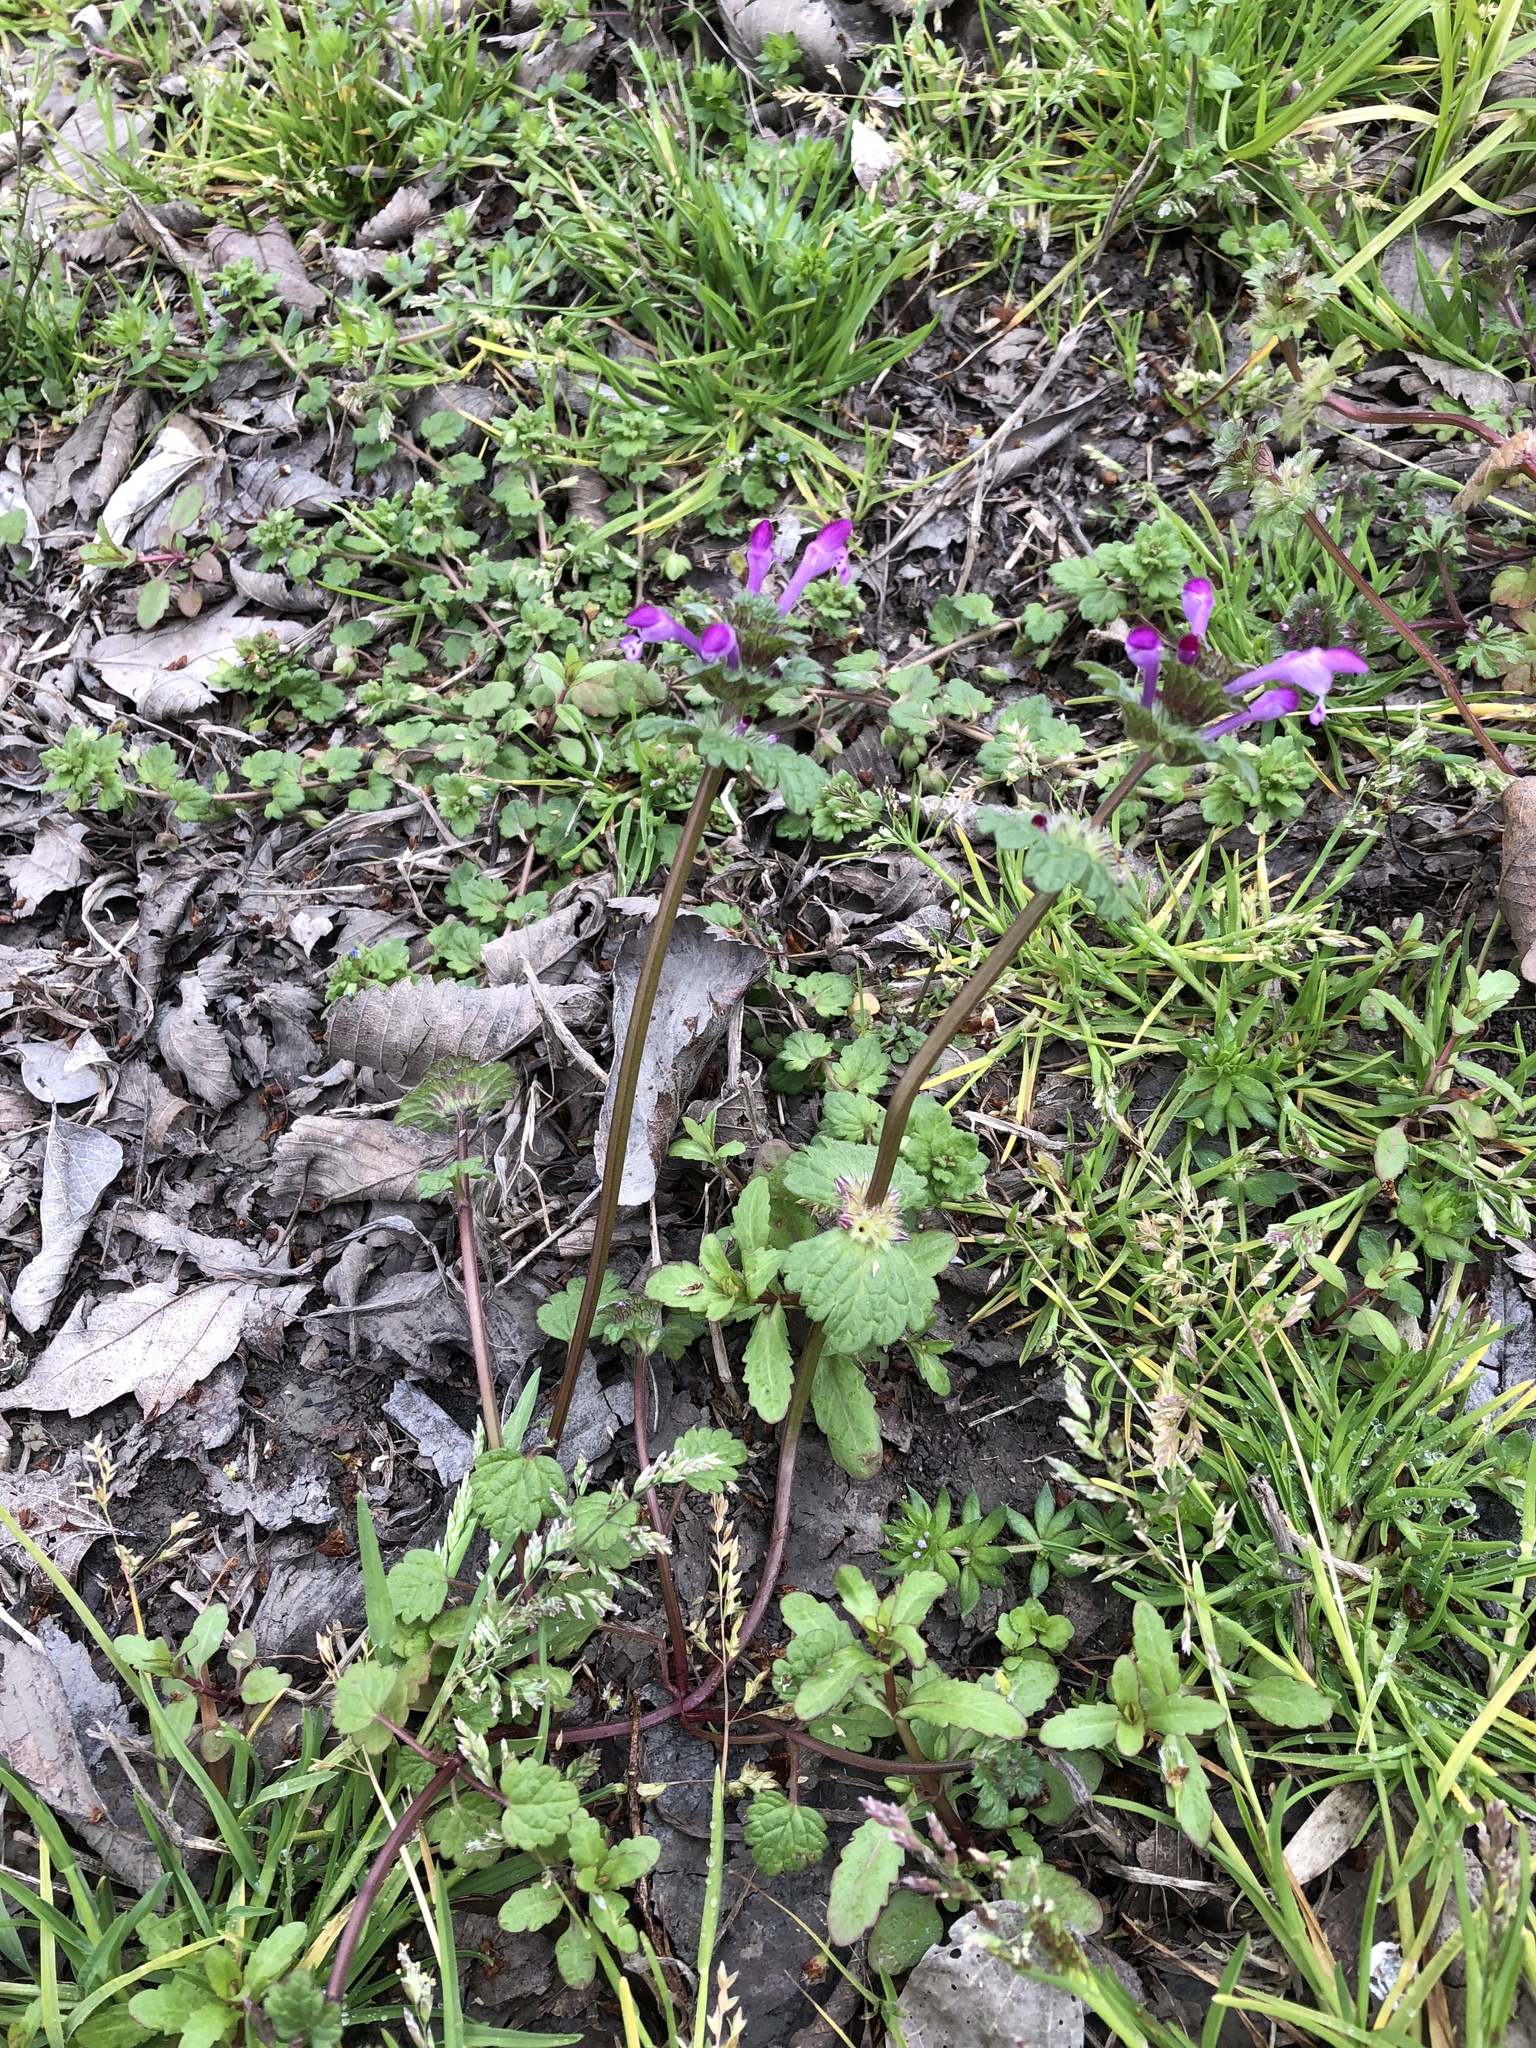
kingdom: Plantae
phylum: Tracheophyta
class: Magnoliopsida
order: Lamiales
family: Lamiaceae
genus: Lamium
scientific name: Lamium amplexicaule
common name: Henbit dead-nettle
